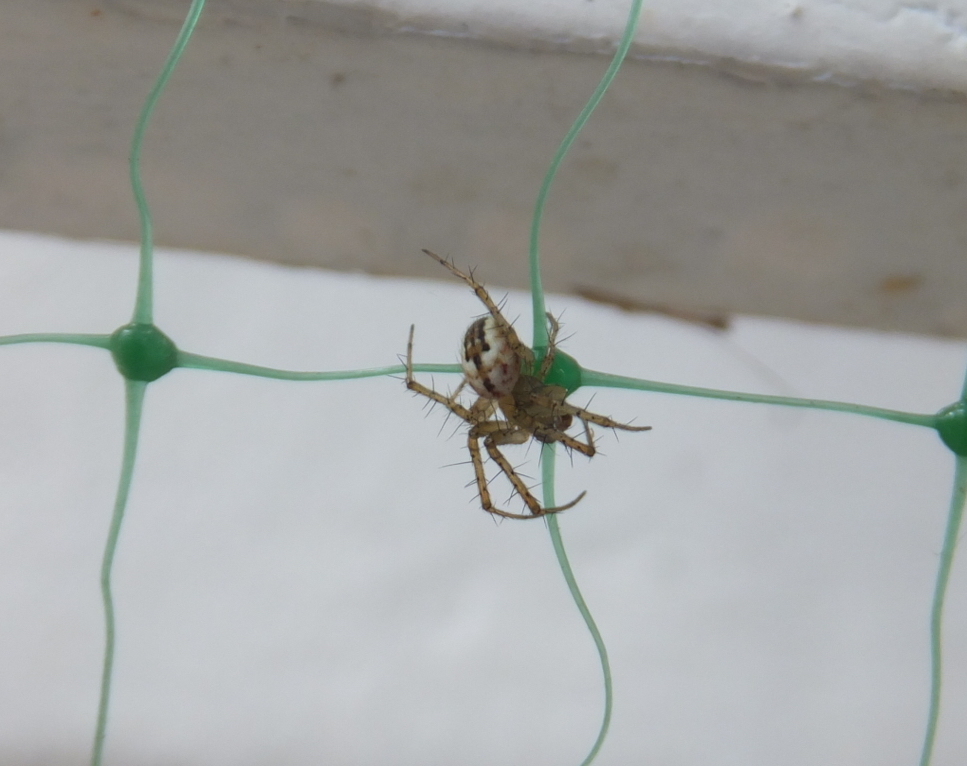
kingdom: Animalia
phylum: Arthropoda
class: Arachnida
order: Araneae
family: Araneidae
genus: Mangora
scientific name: Mangora acalypha
